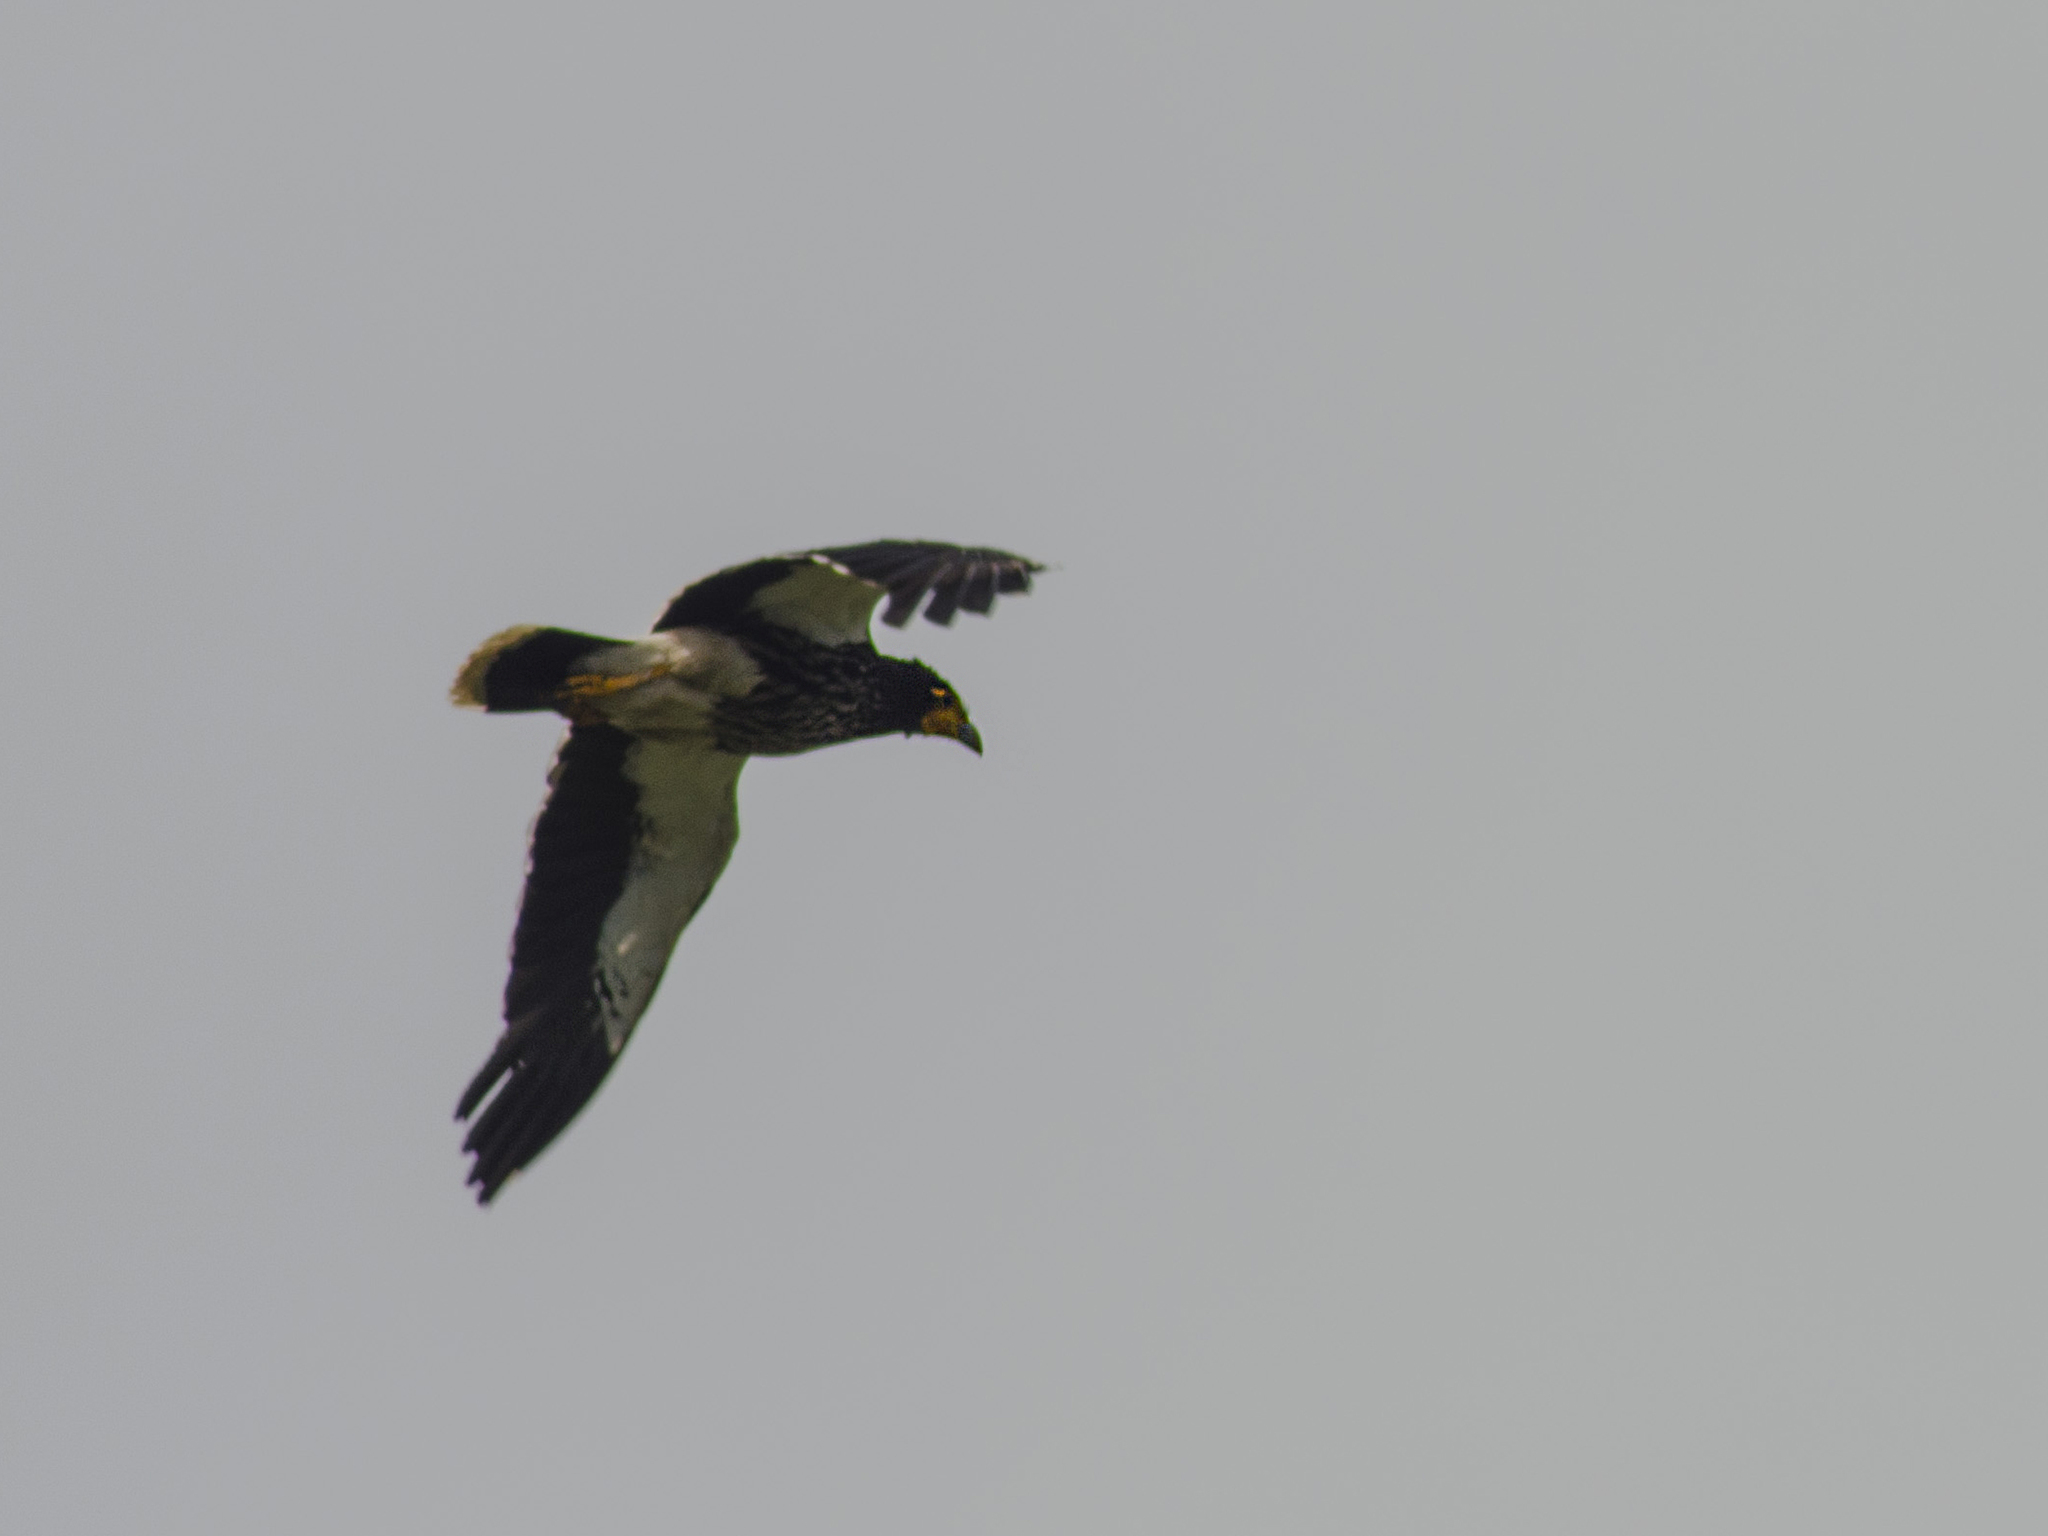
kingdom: Animalia
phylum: Chordata
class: Aves
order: Falconiformes
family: Falconidae
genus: Daptrius
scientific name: Daptrius
